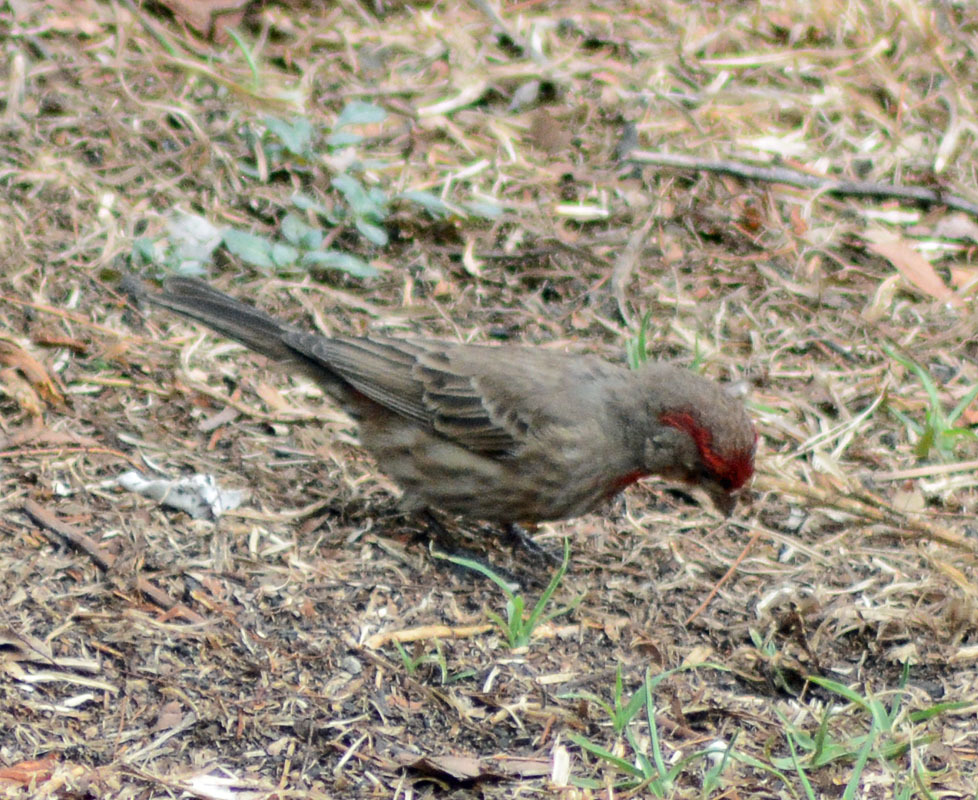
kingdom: Animalia
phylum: Chordata
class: Aves
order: Passeriformes
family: Fringillidae
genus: Haemorhous
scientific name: Haemorhous mexicanus
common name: House finch
